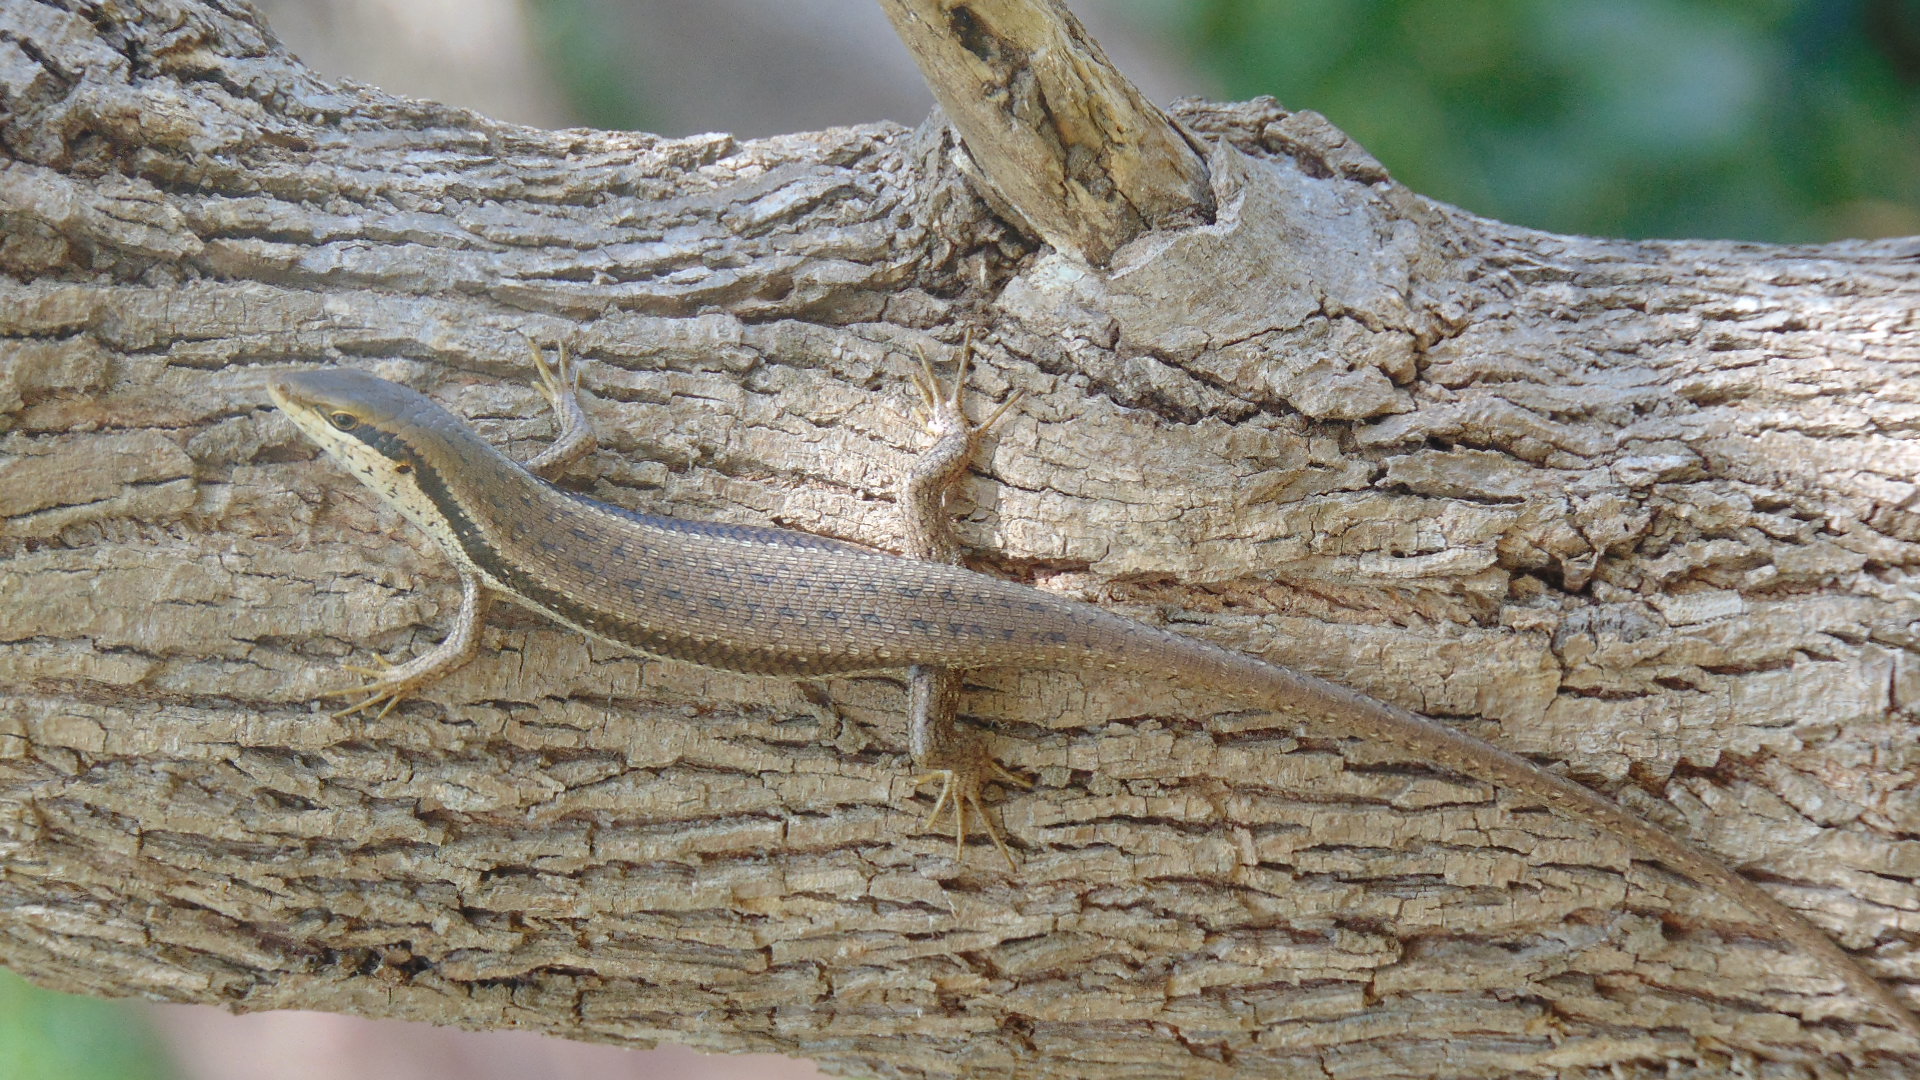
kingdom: Animalia
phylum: Chordata
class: Squamata
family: Scincidae
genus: Trachylepis
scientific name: Trachylepis planifrons
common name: Tree skink
